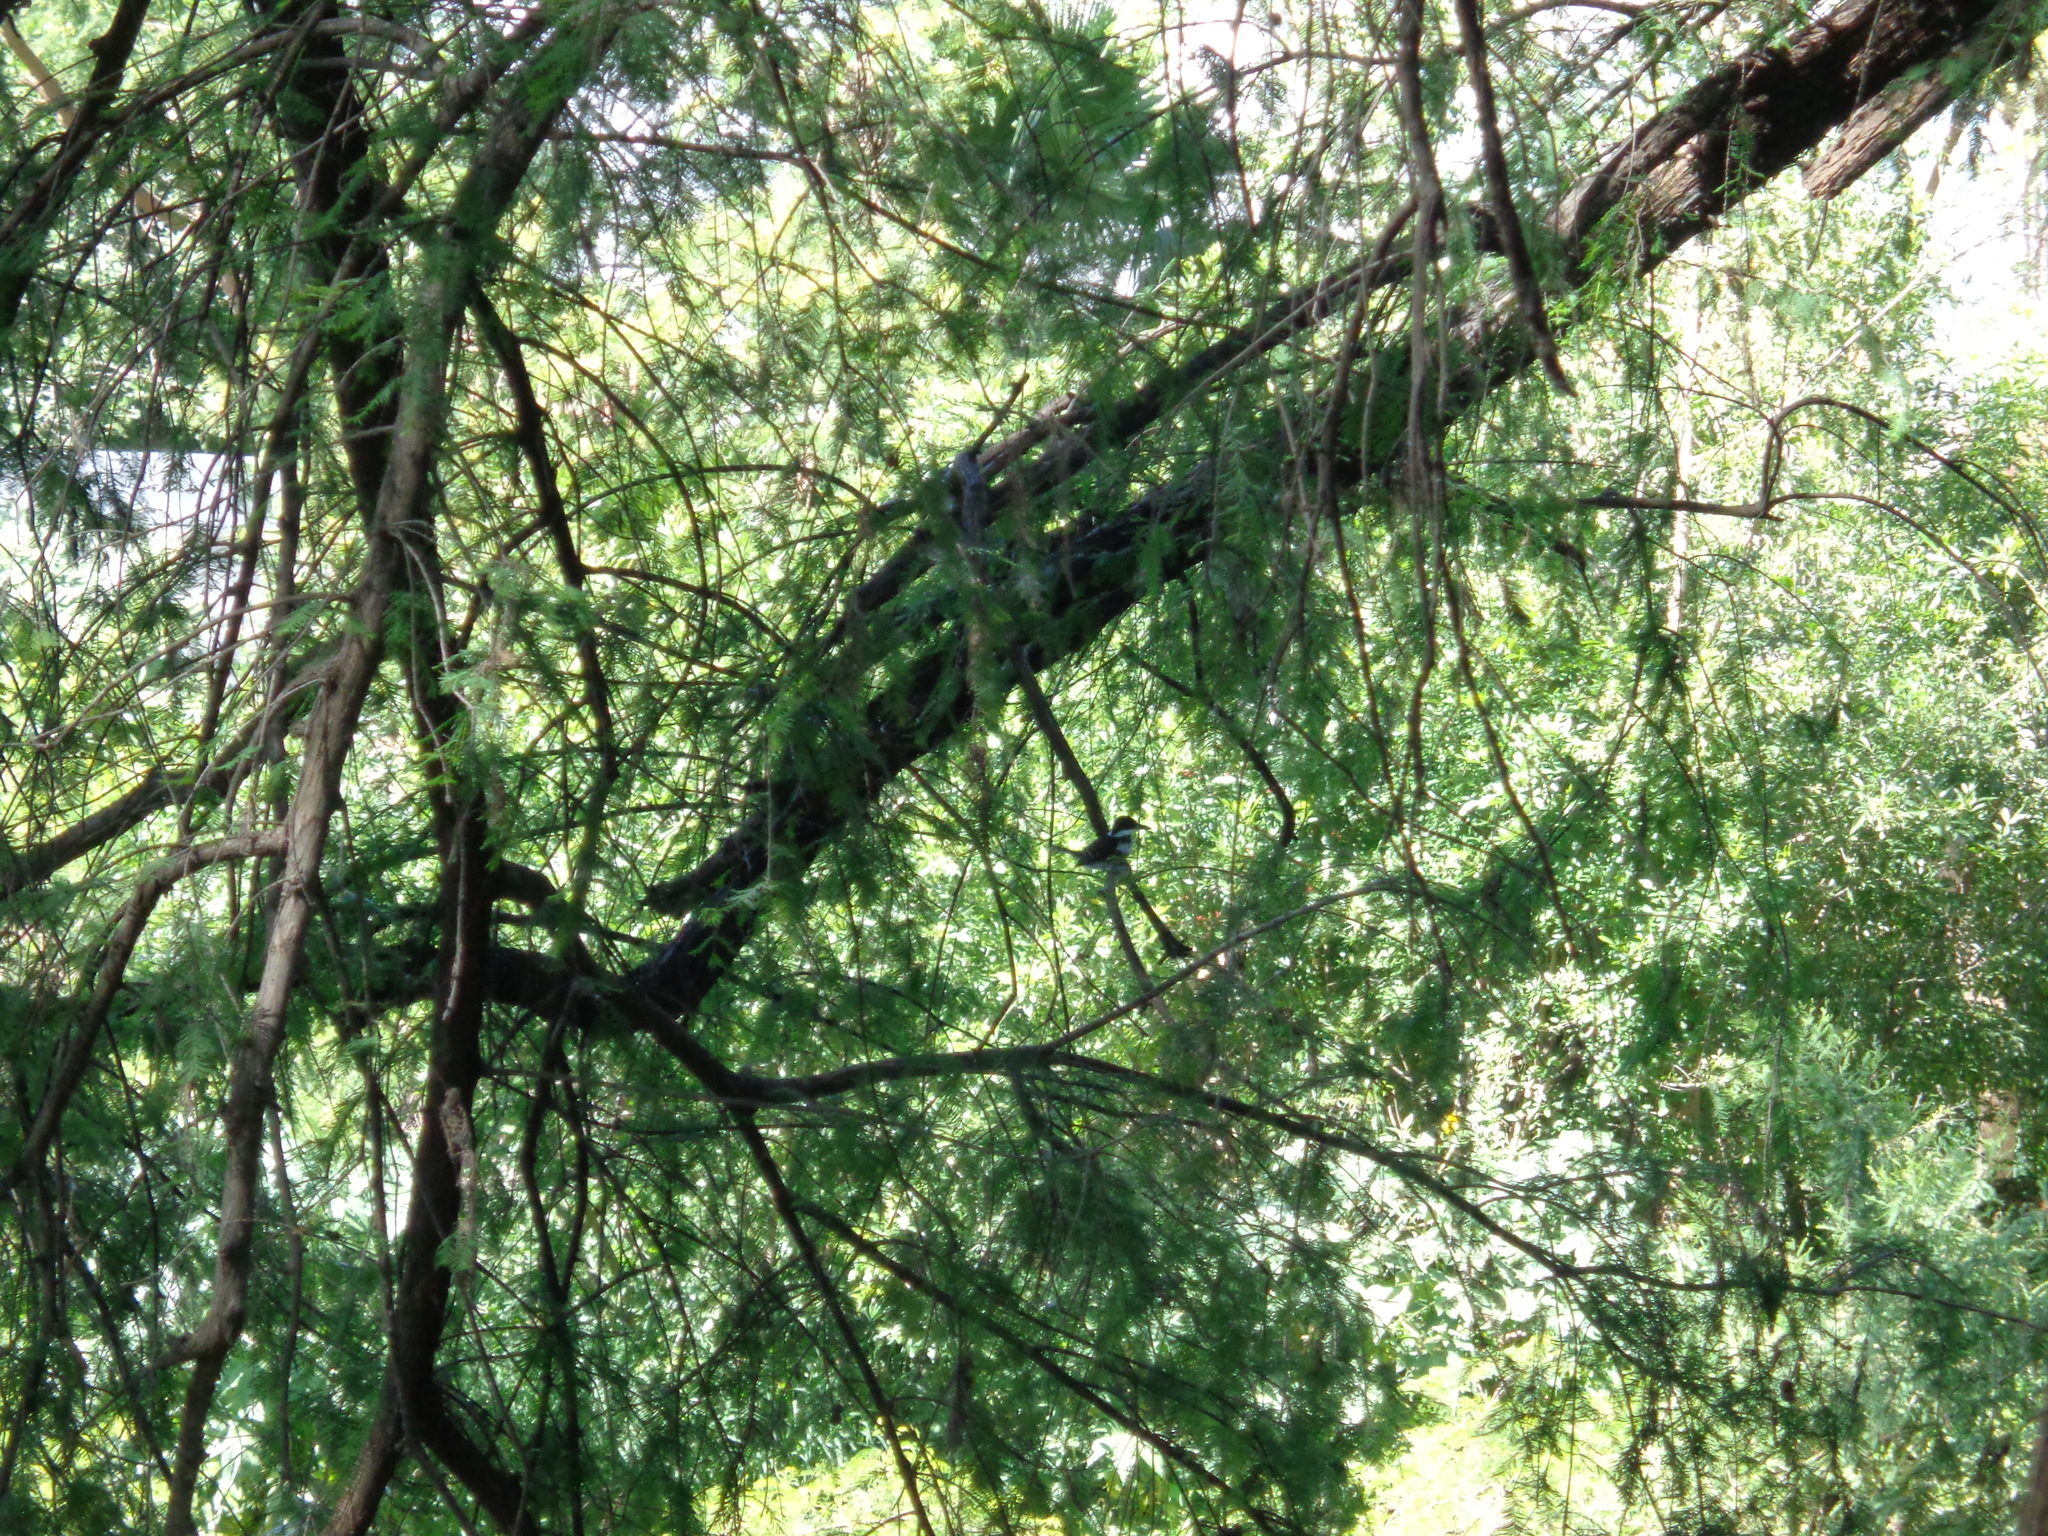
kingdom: Animalia
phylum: Chordata
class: Aves
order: Coraciiformes
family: Alcedinidae
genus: Chloroceryle
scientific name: Chloroceryle americana
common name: Green kingfisher
